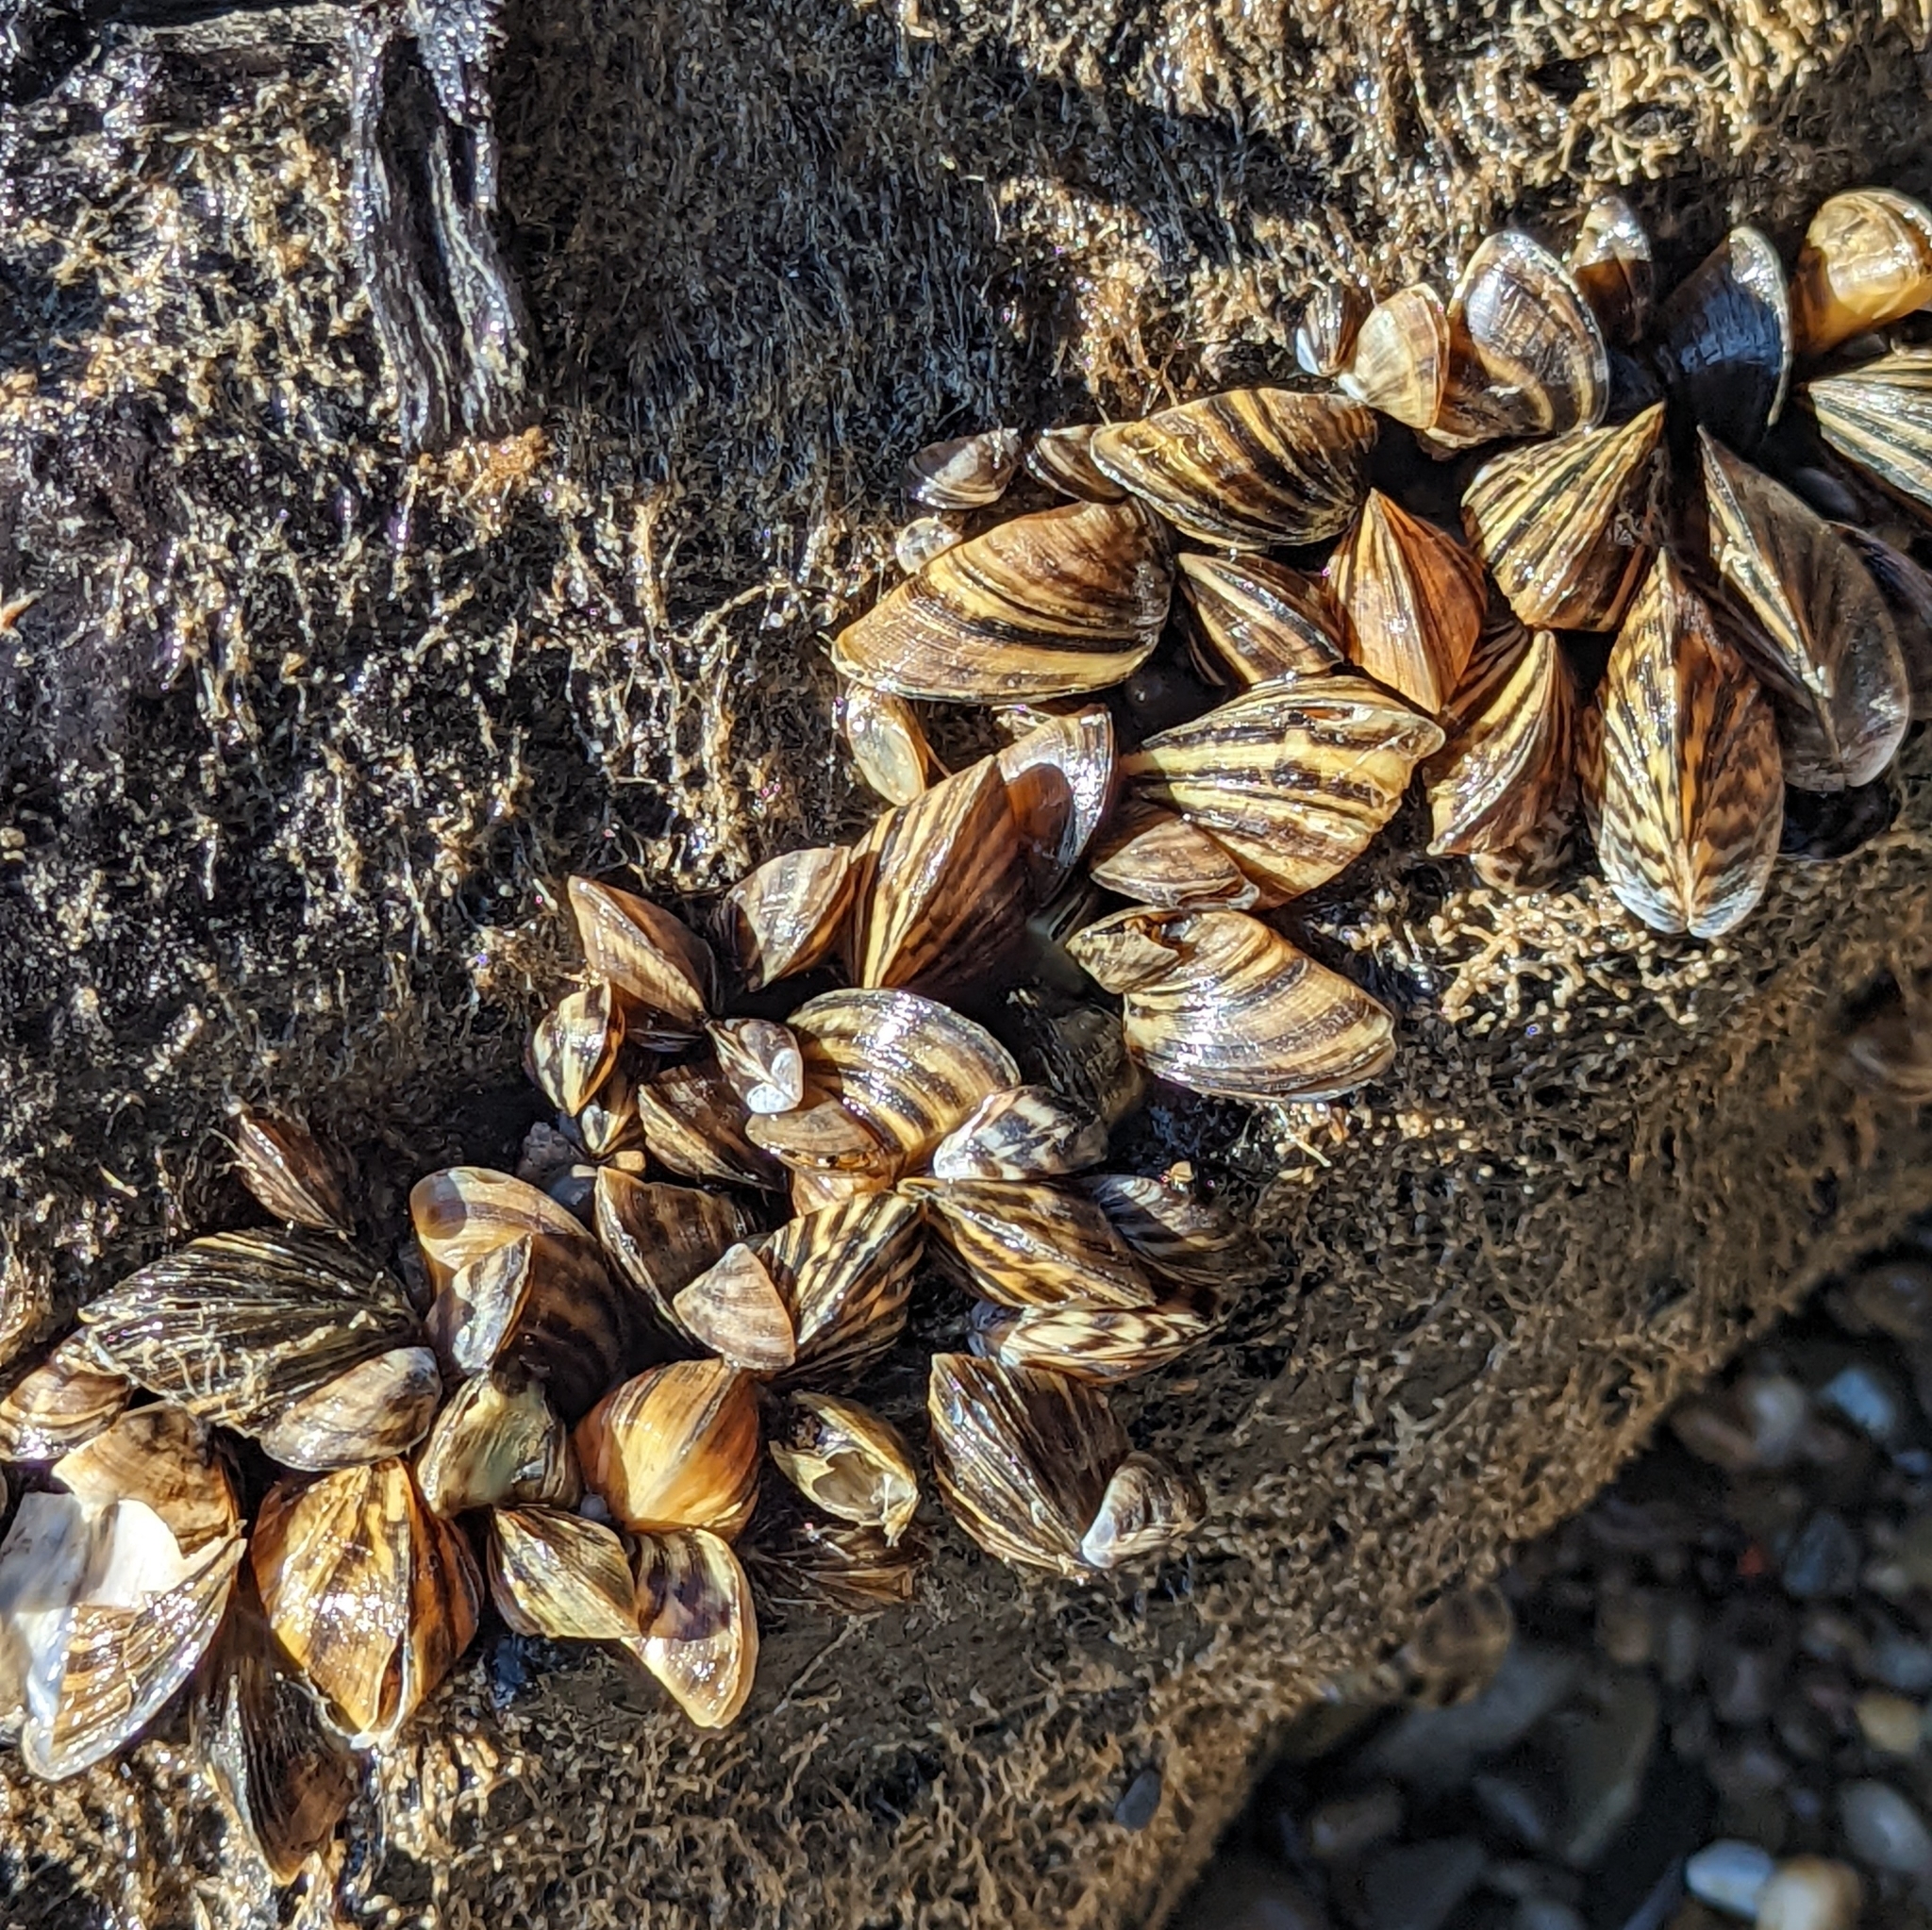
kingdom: Animalia
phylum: Mollusca
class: Bivalvia
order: Myida
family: Dreissenidae
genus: Dreissena
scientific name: Dreissena polymorpha
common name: Zebra mussel
